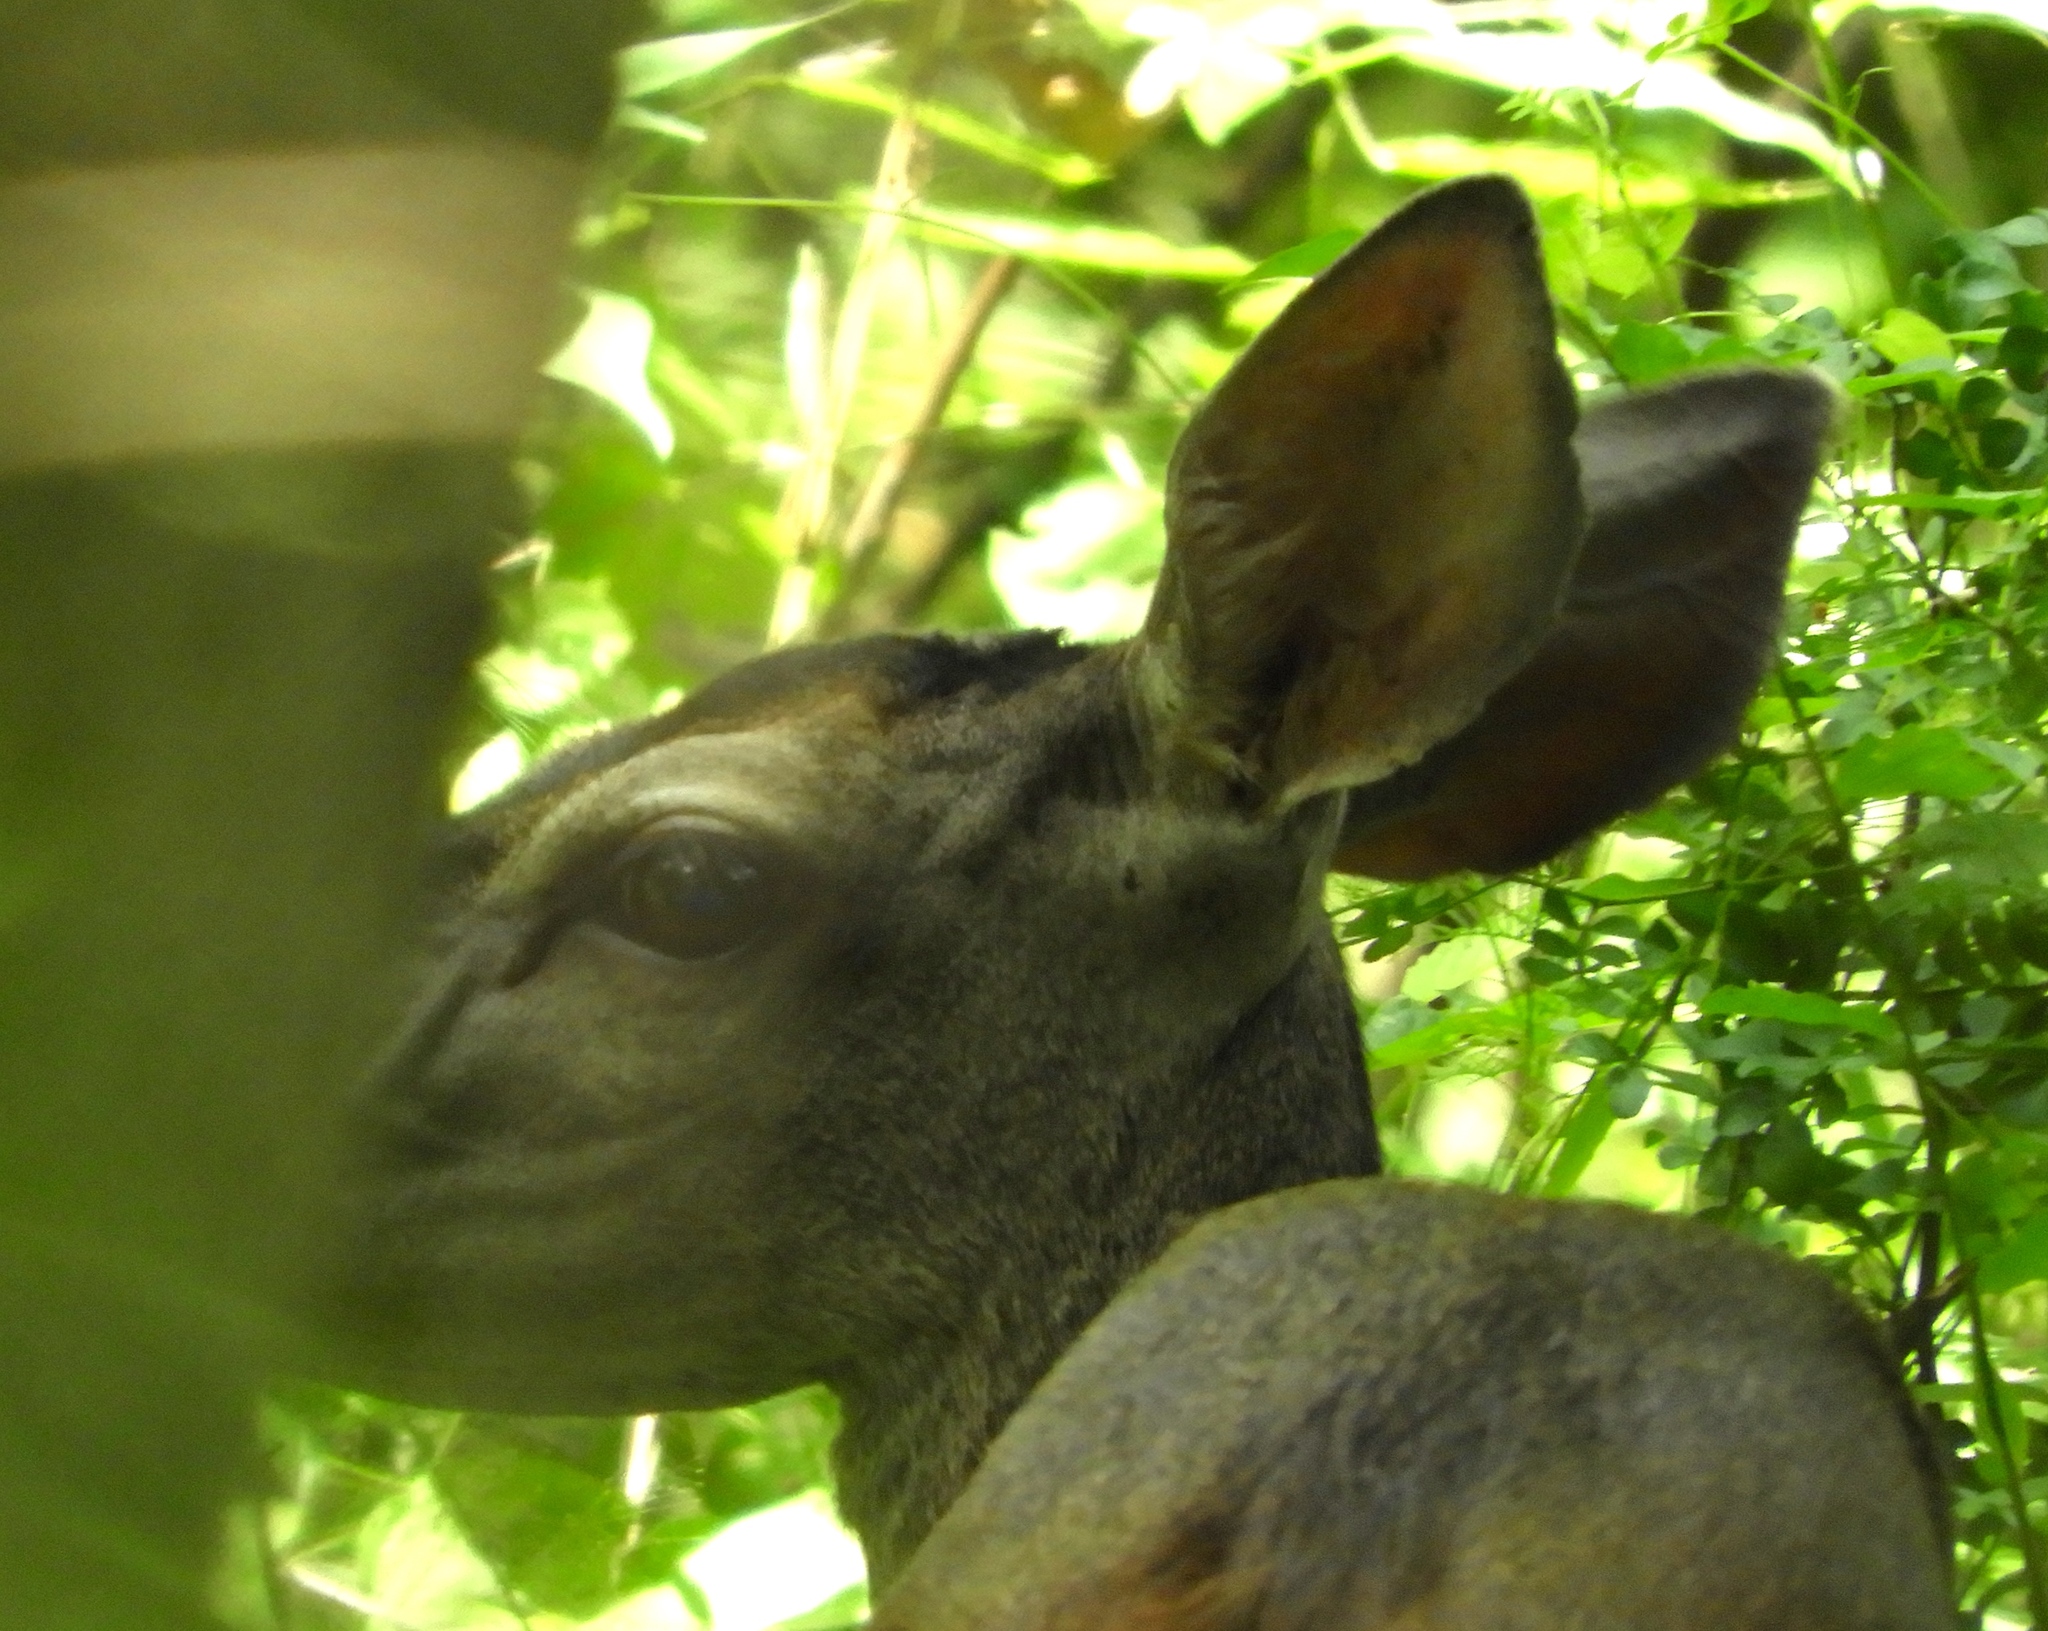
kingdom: Animalia
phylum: Chordata
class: Mammalia
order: Artiodactyla
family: Cervidae
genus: Odocoileus
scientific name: Odocoileus virginianus
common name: White-tailed deer
